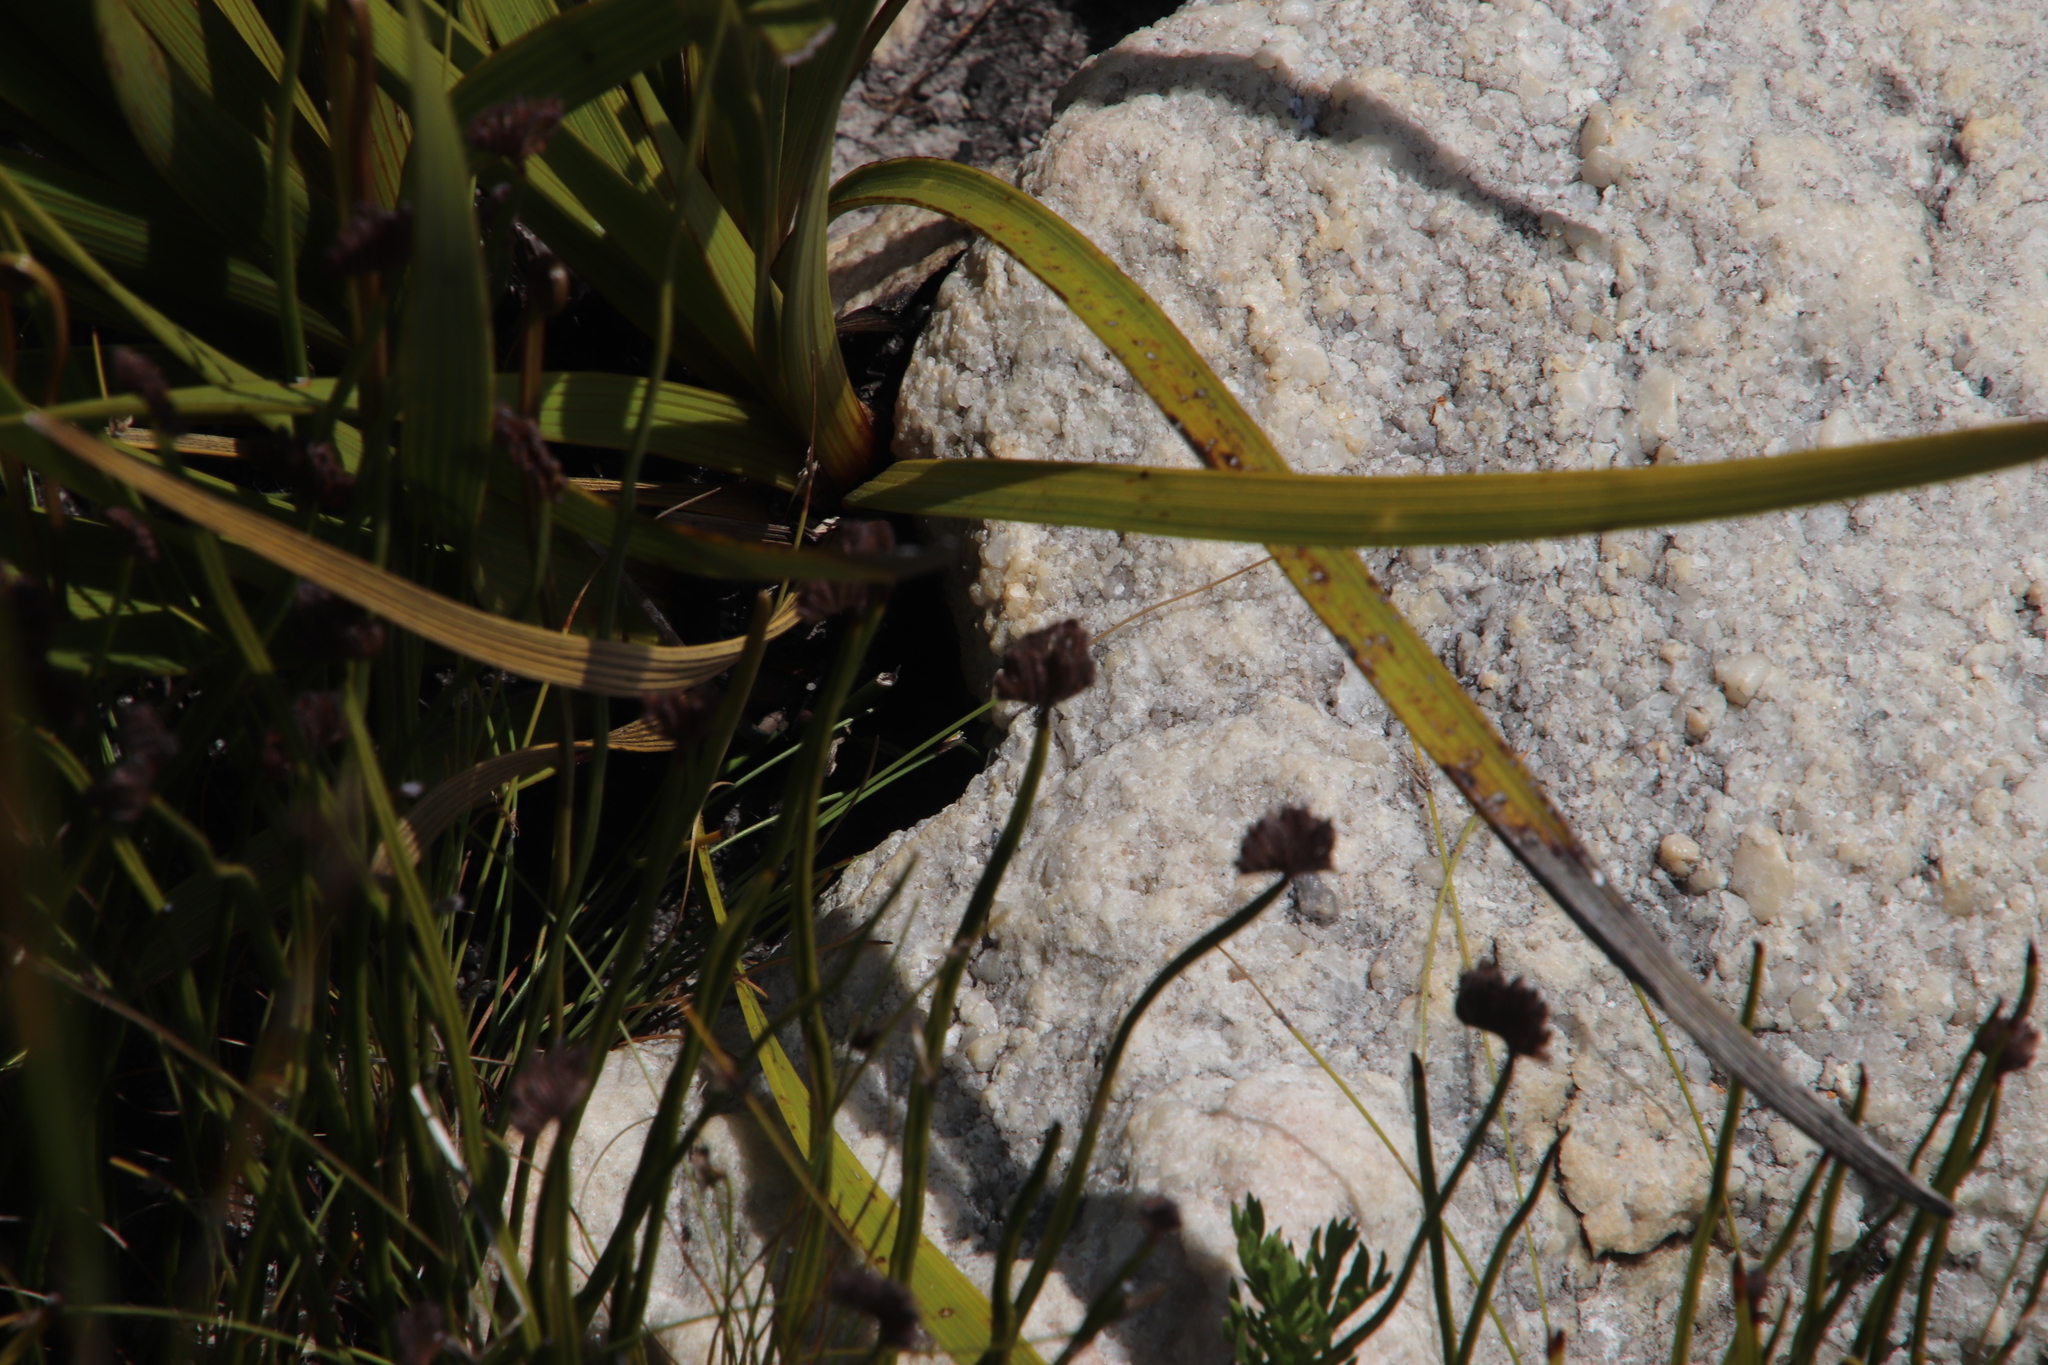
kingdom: Plantae
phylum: Tracheophyta
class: Polypodiopsida
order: Schizaeales
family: Schizaeaceae
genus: Schizaea
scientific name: Schizaea pectinata
